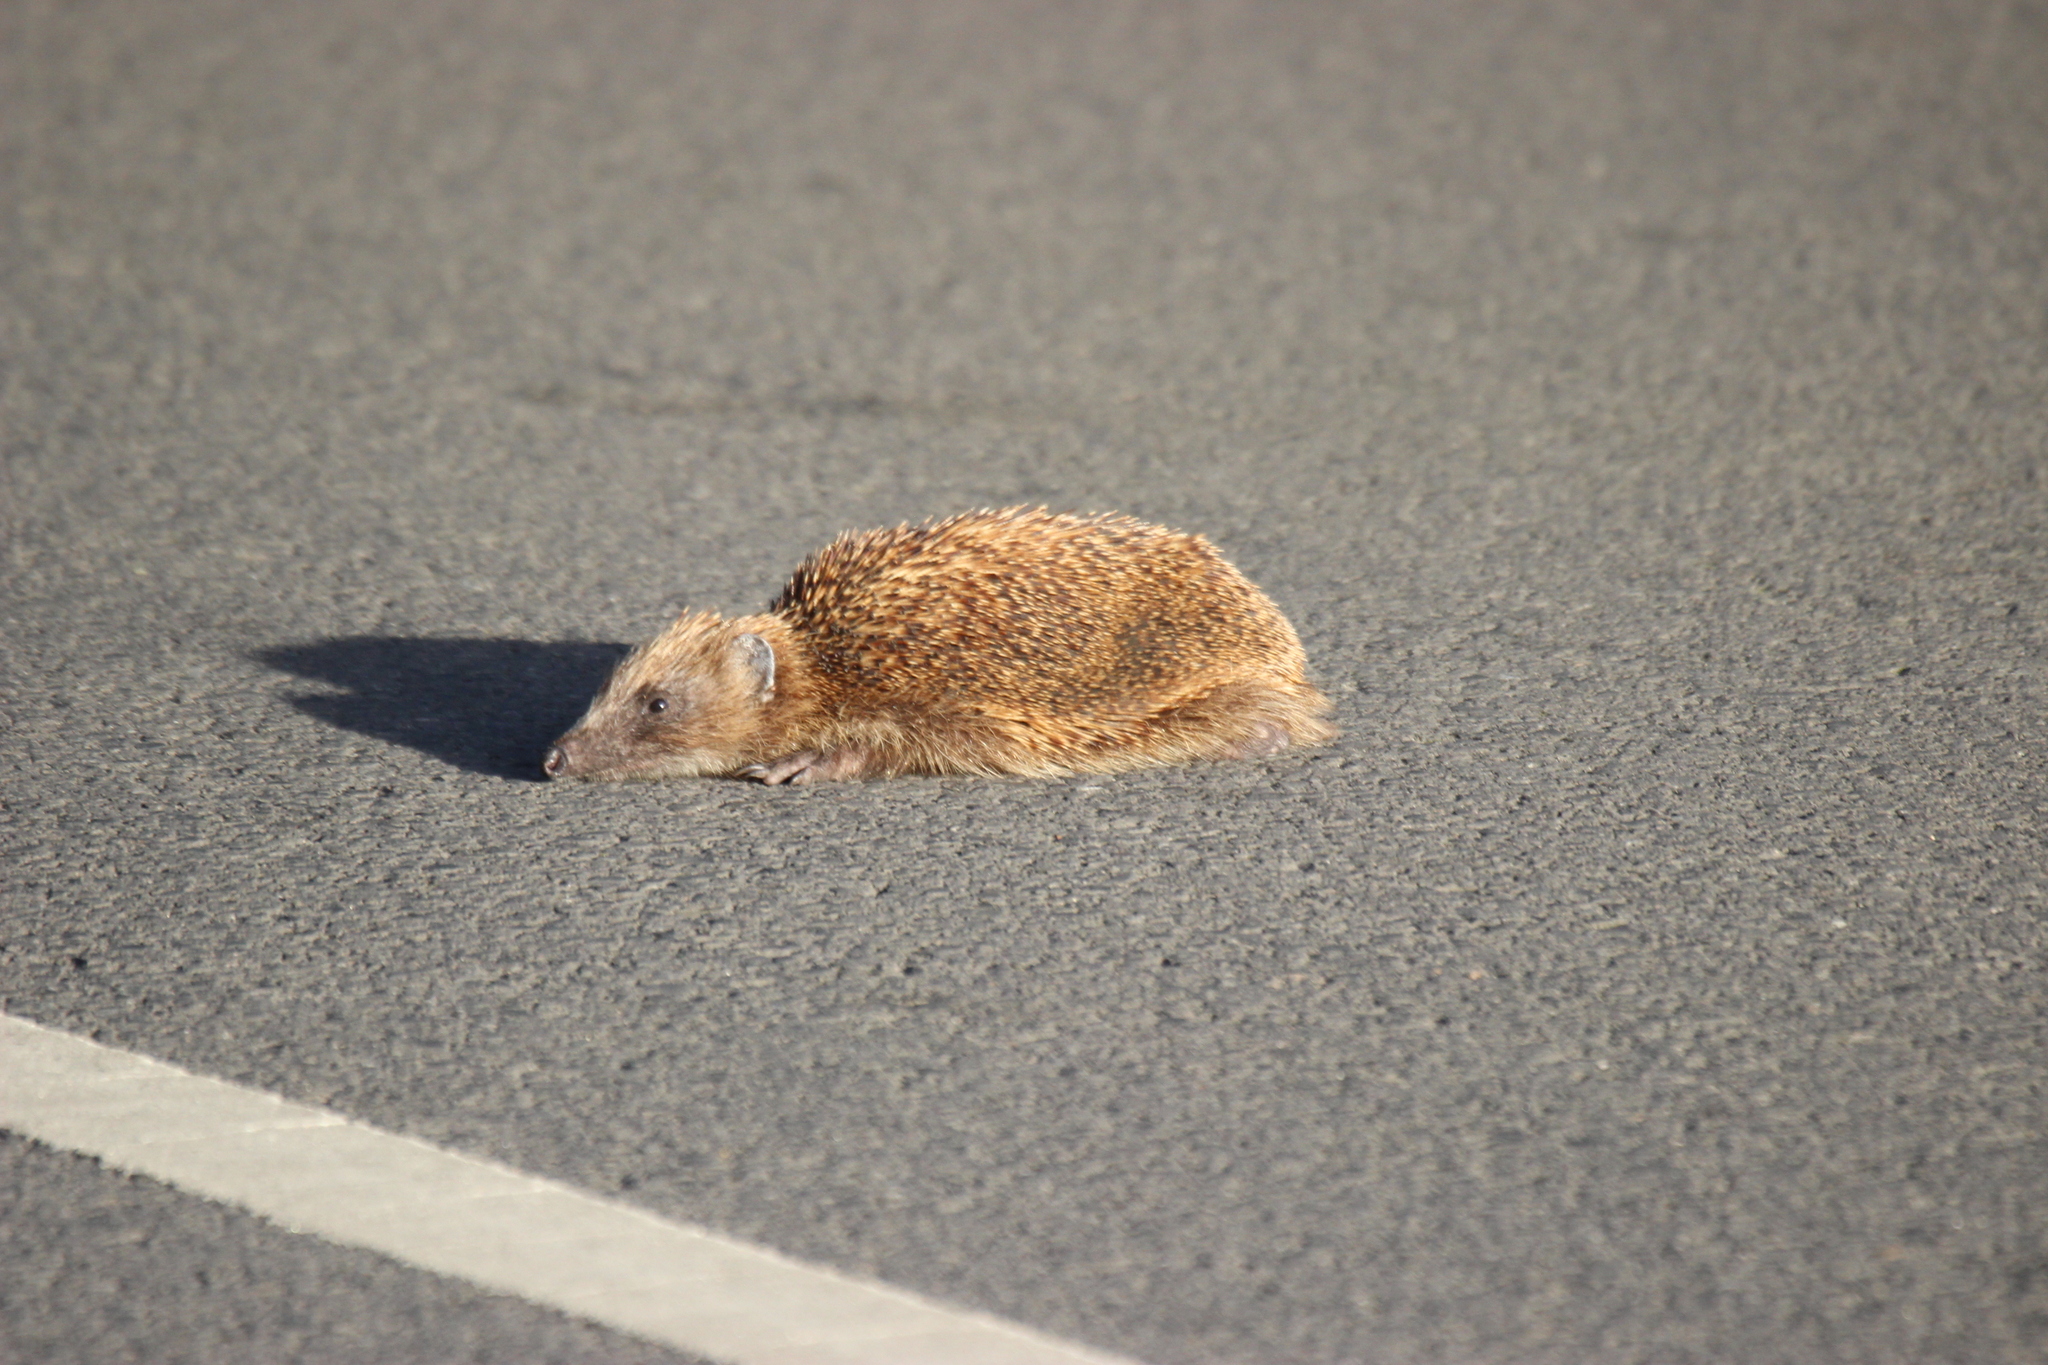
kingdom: Animalia
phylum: Chordata
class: Mammalia
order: Erinaceomorpha
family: Erinaceidae
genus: Erinaceus
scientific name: Erinaceus europaeus
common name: West european hedgehog
